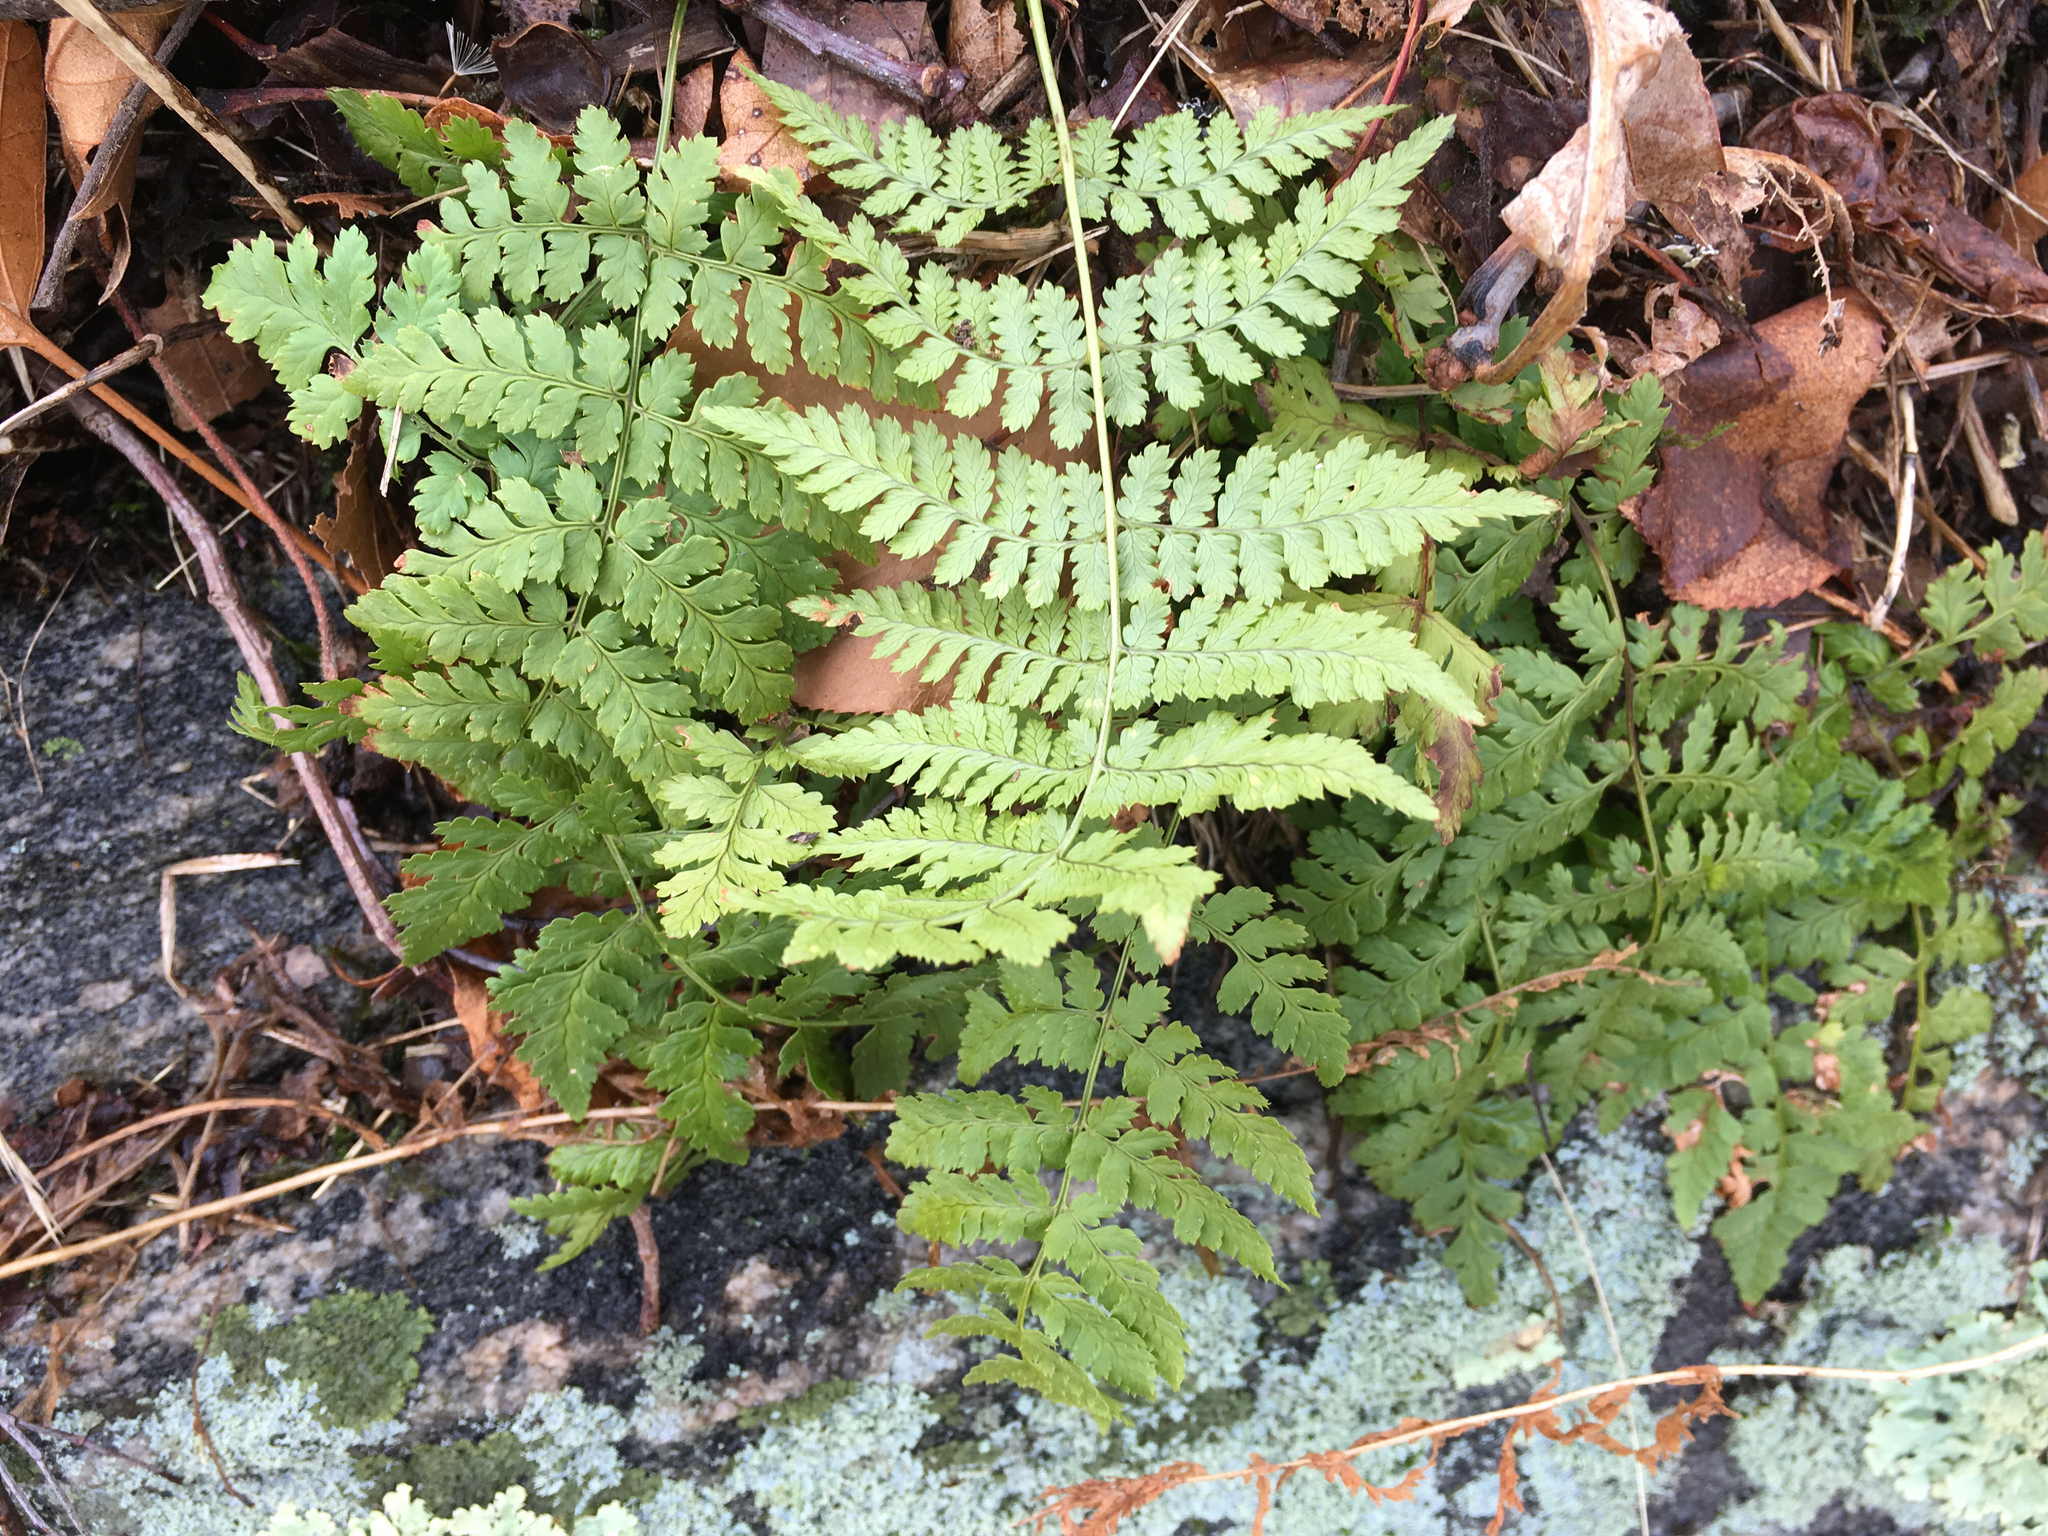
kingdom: Plantae
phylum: Tracheophyta
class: Polypodiopsida
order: Polypodiales
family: Dryopteridaceae
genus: Dryopteris
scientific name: Dryopteris intermedia
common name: Evergreen wood fern
